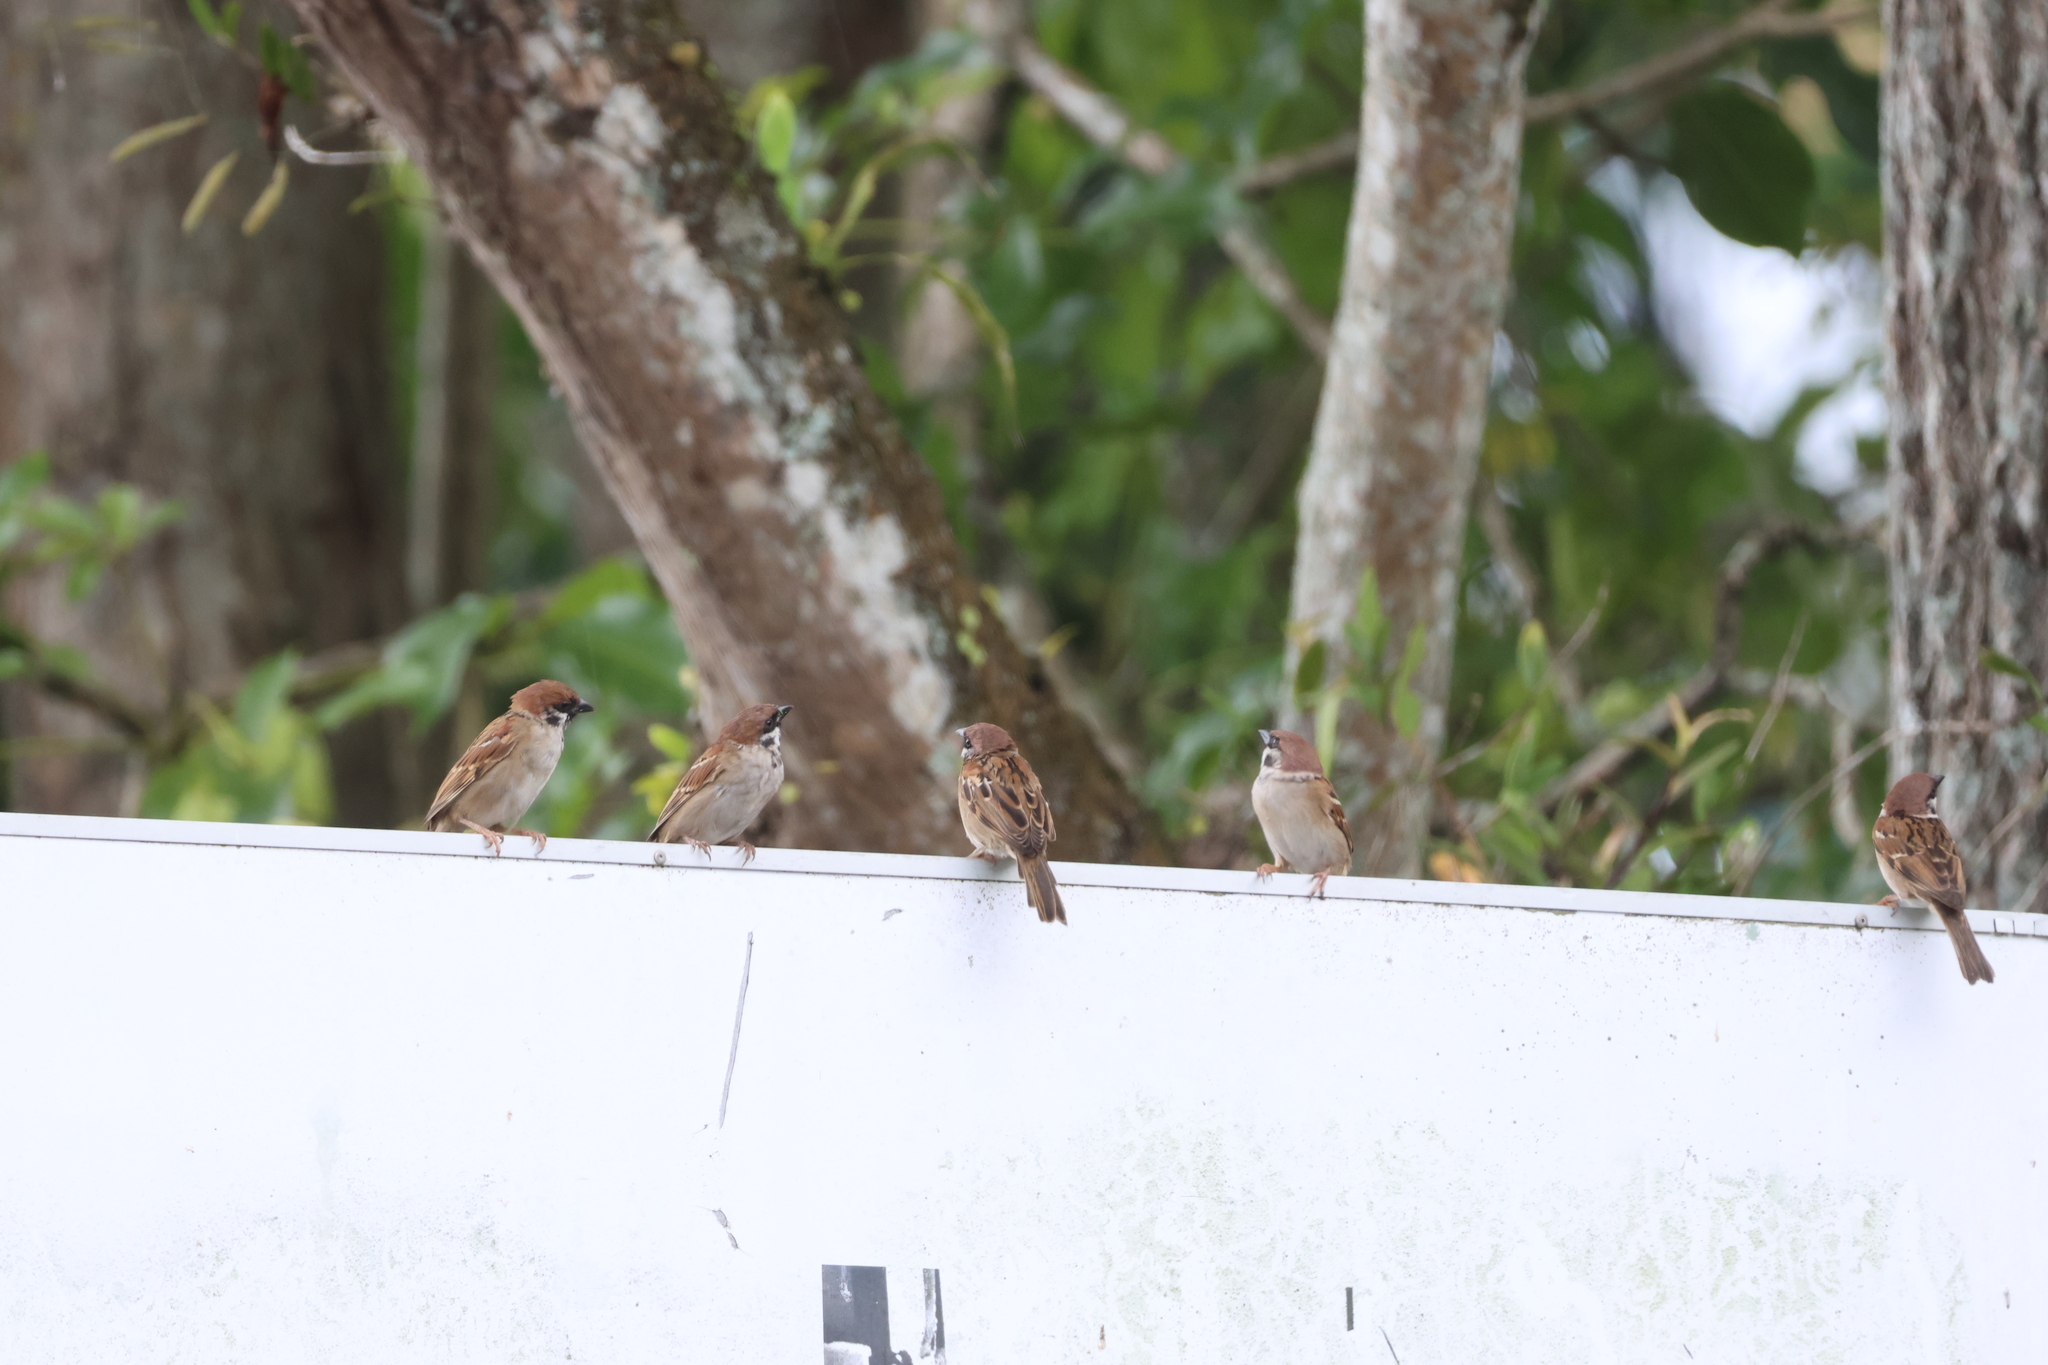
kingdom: Animalia
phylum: Chordata
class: Aves
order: Passeriformes
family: Passeridae
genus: Passer
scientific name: Passer montanus
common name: Eurasian tree sparrow
